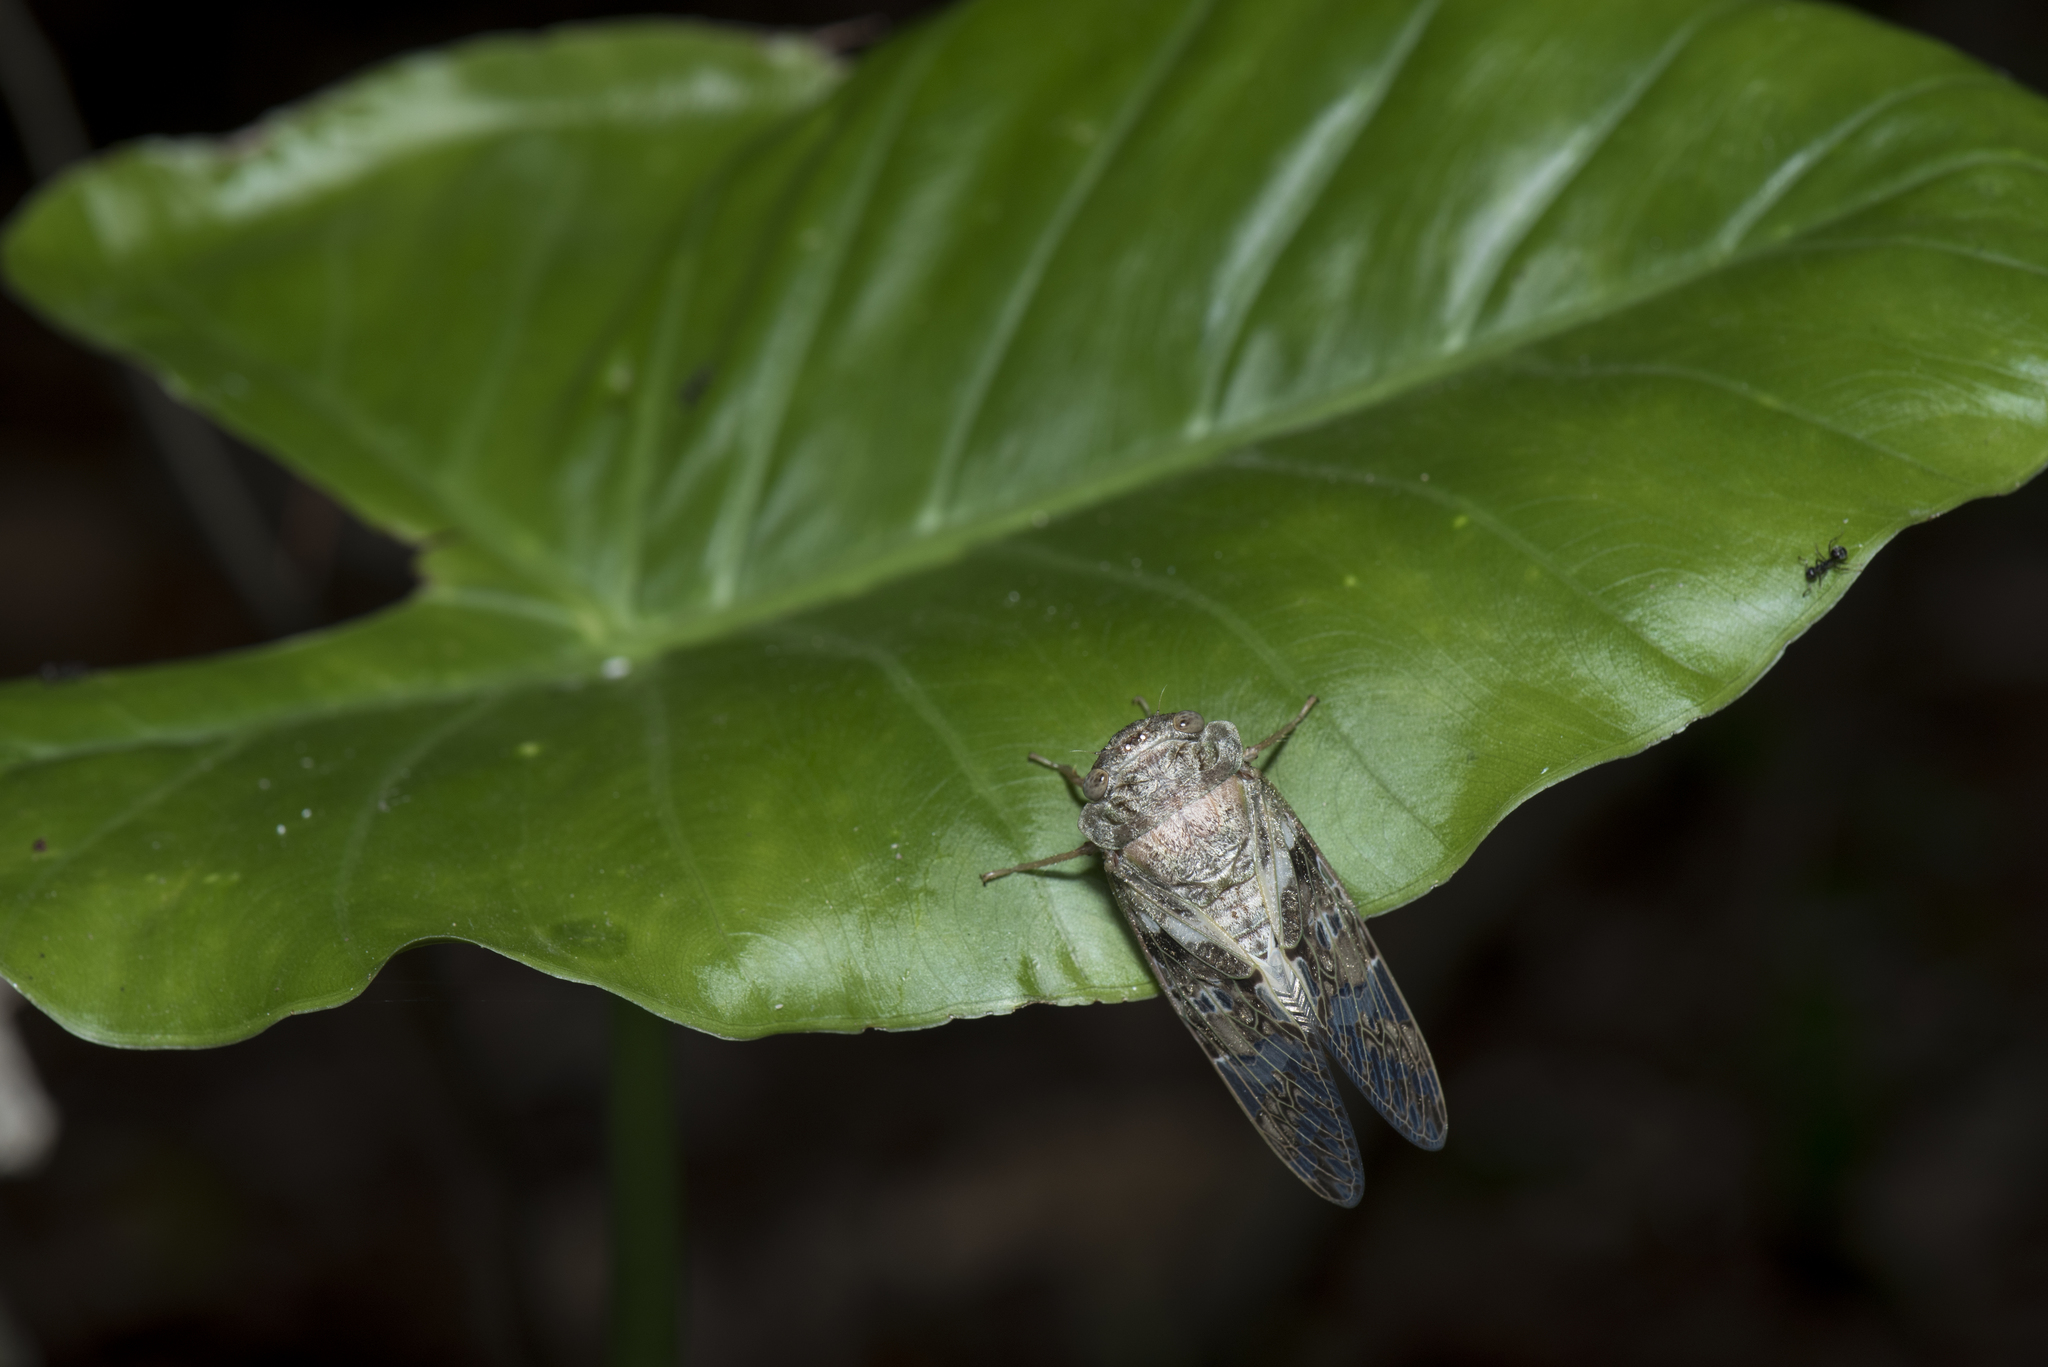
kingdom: Animalia
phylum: Arthropoda
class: Insecta
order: Hemiptera
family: Cicadidae
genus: Platypleura
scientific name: Platypleura takasagona
